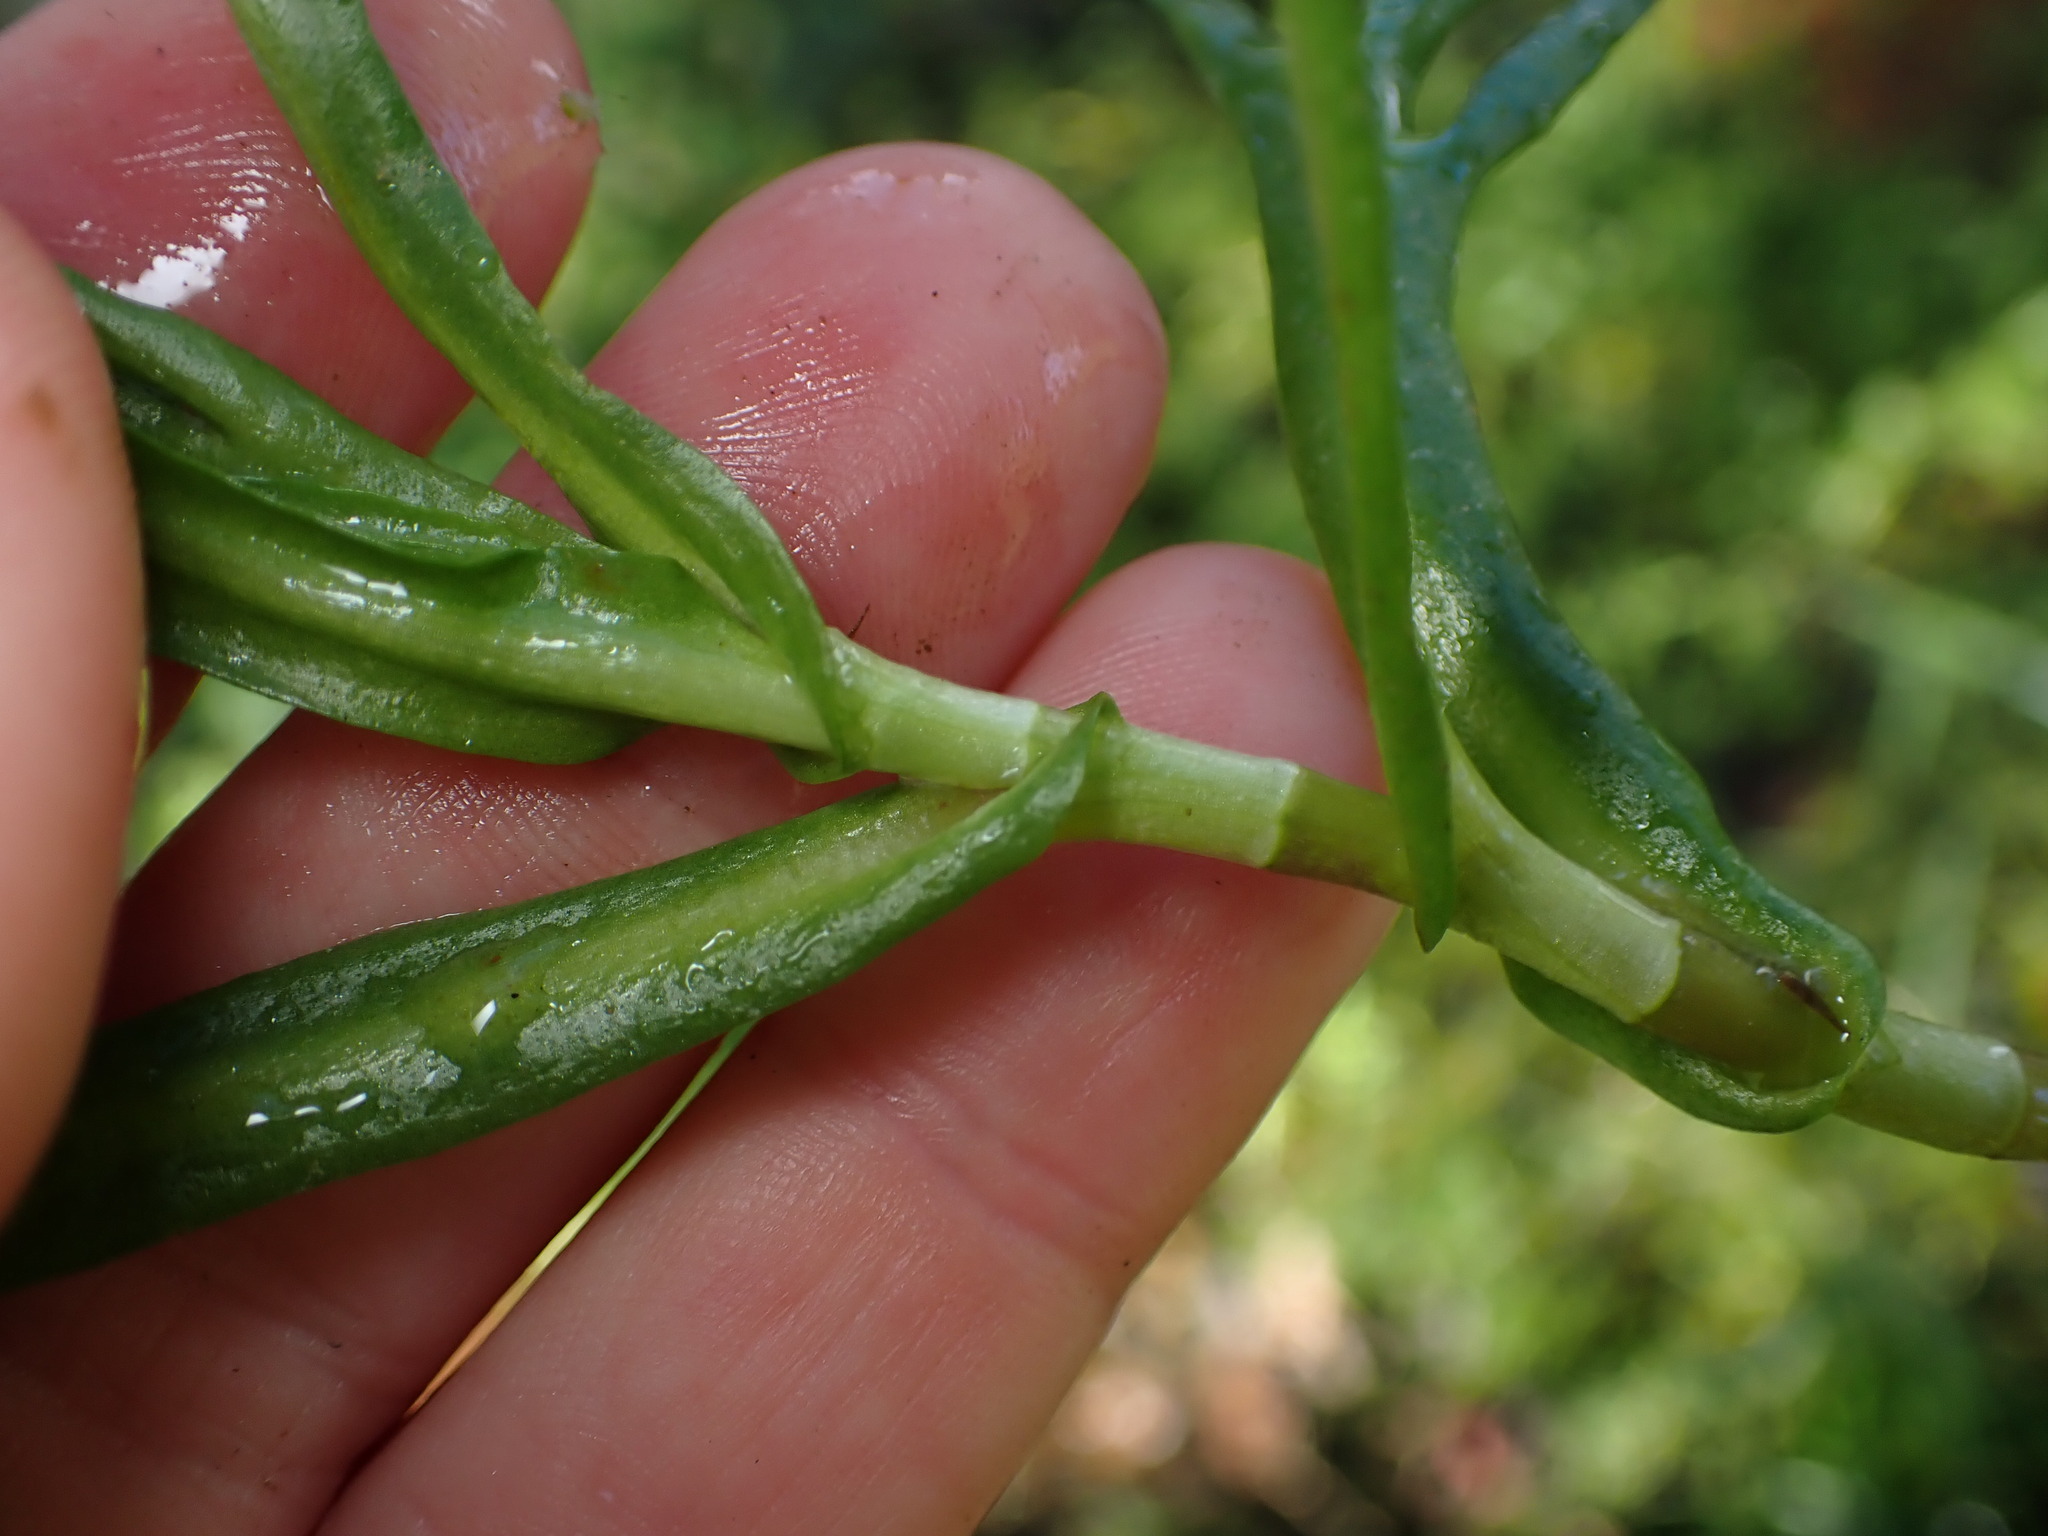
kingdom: Plantae
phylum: Tracheophyta
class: Magnoliopsida
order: Asterales
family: Asteraceae
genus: Cotula
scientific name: Cotula coronopifolia
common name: Buttonweed
